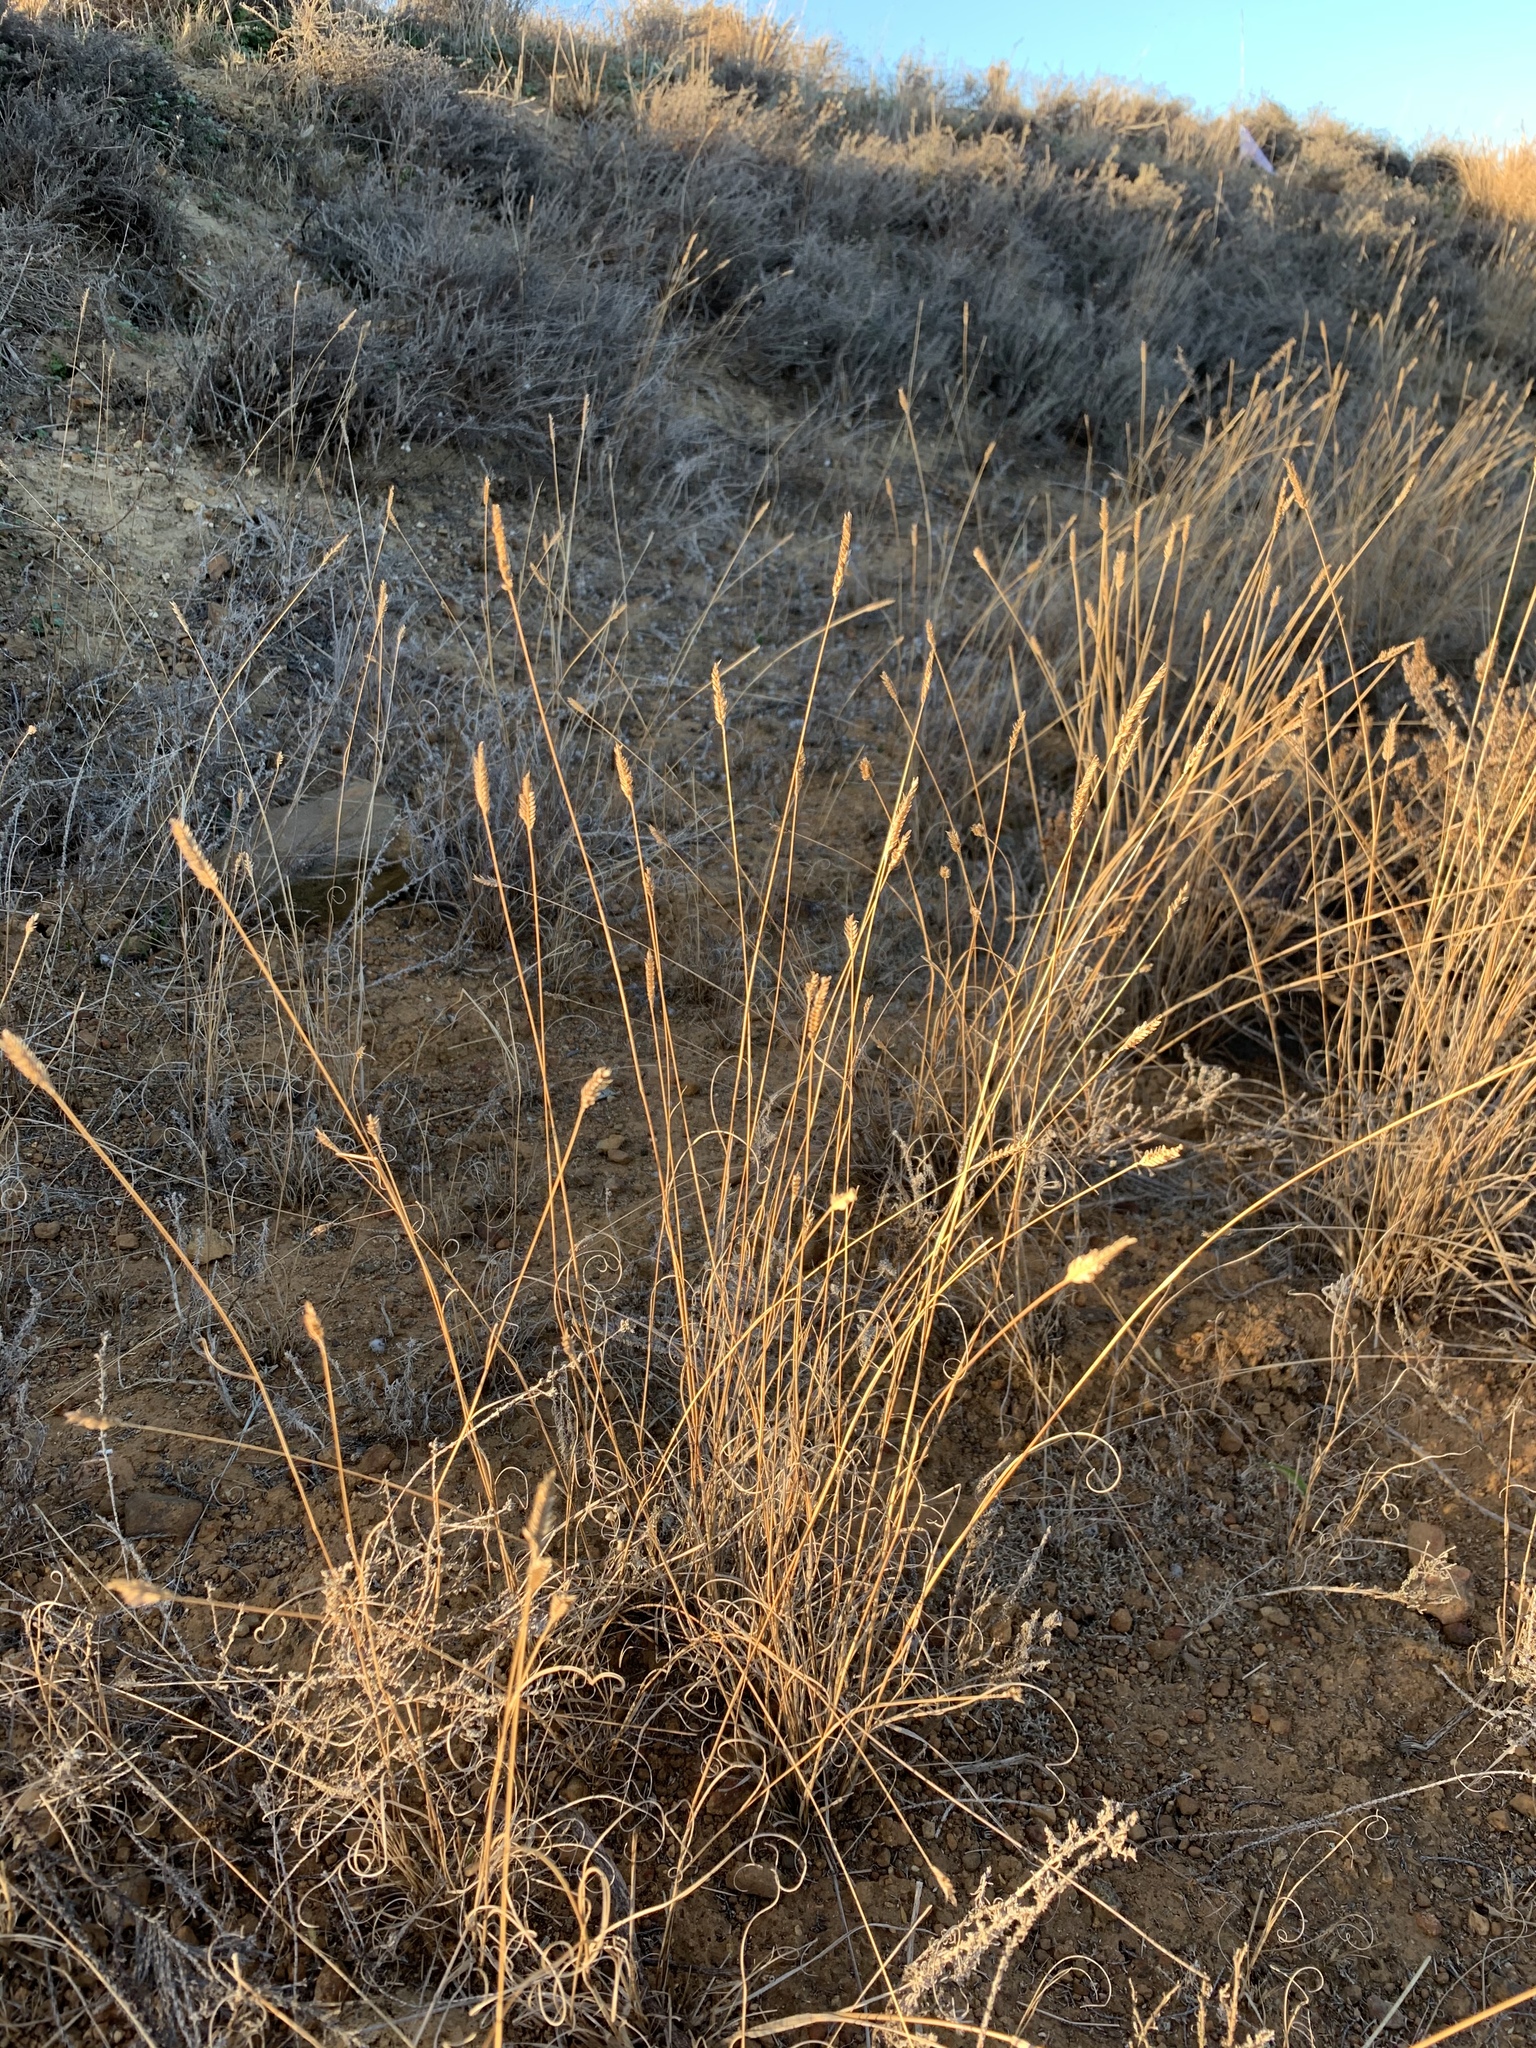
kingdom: Plantae
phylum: Tracheophyta
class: Liliopsida
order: Poales
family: Poaceae
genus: Tribolium
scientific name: Tribolium uniolae
